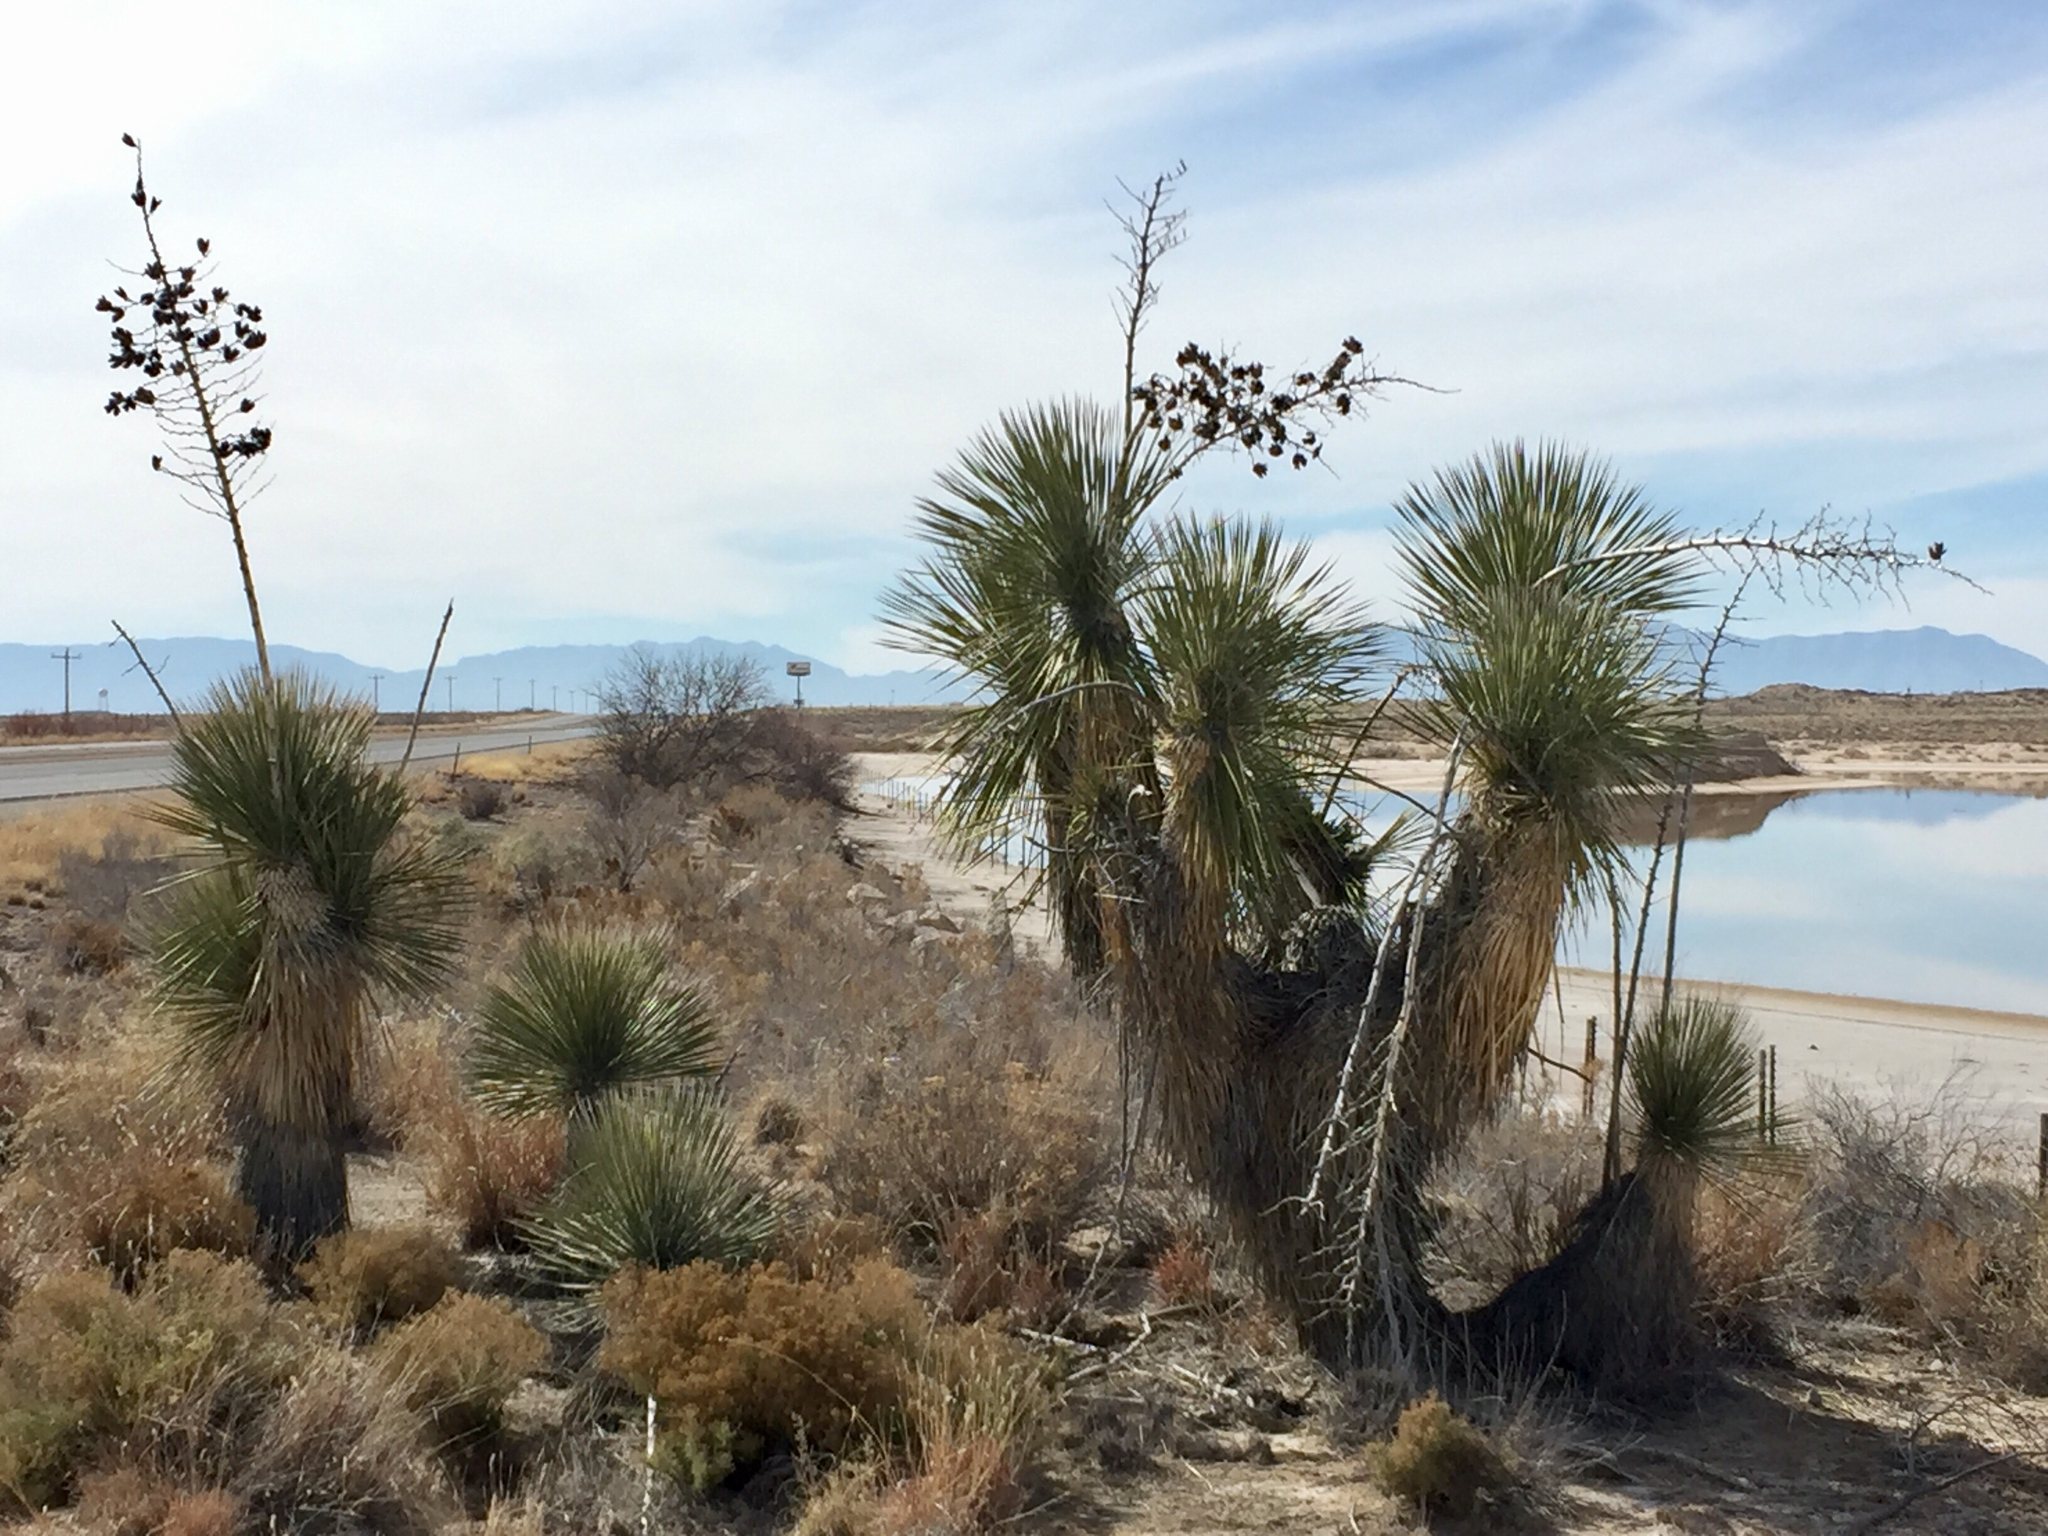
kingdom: Plantae
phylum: Tracheophyta
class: Liliopsida
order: Asparagales
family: Asparagaceae
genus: Yucca
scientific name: Yucca elata
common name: Palmella
